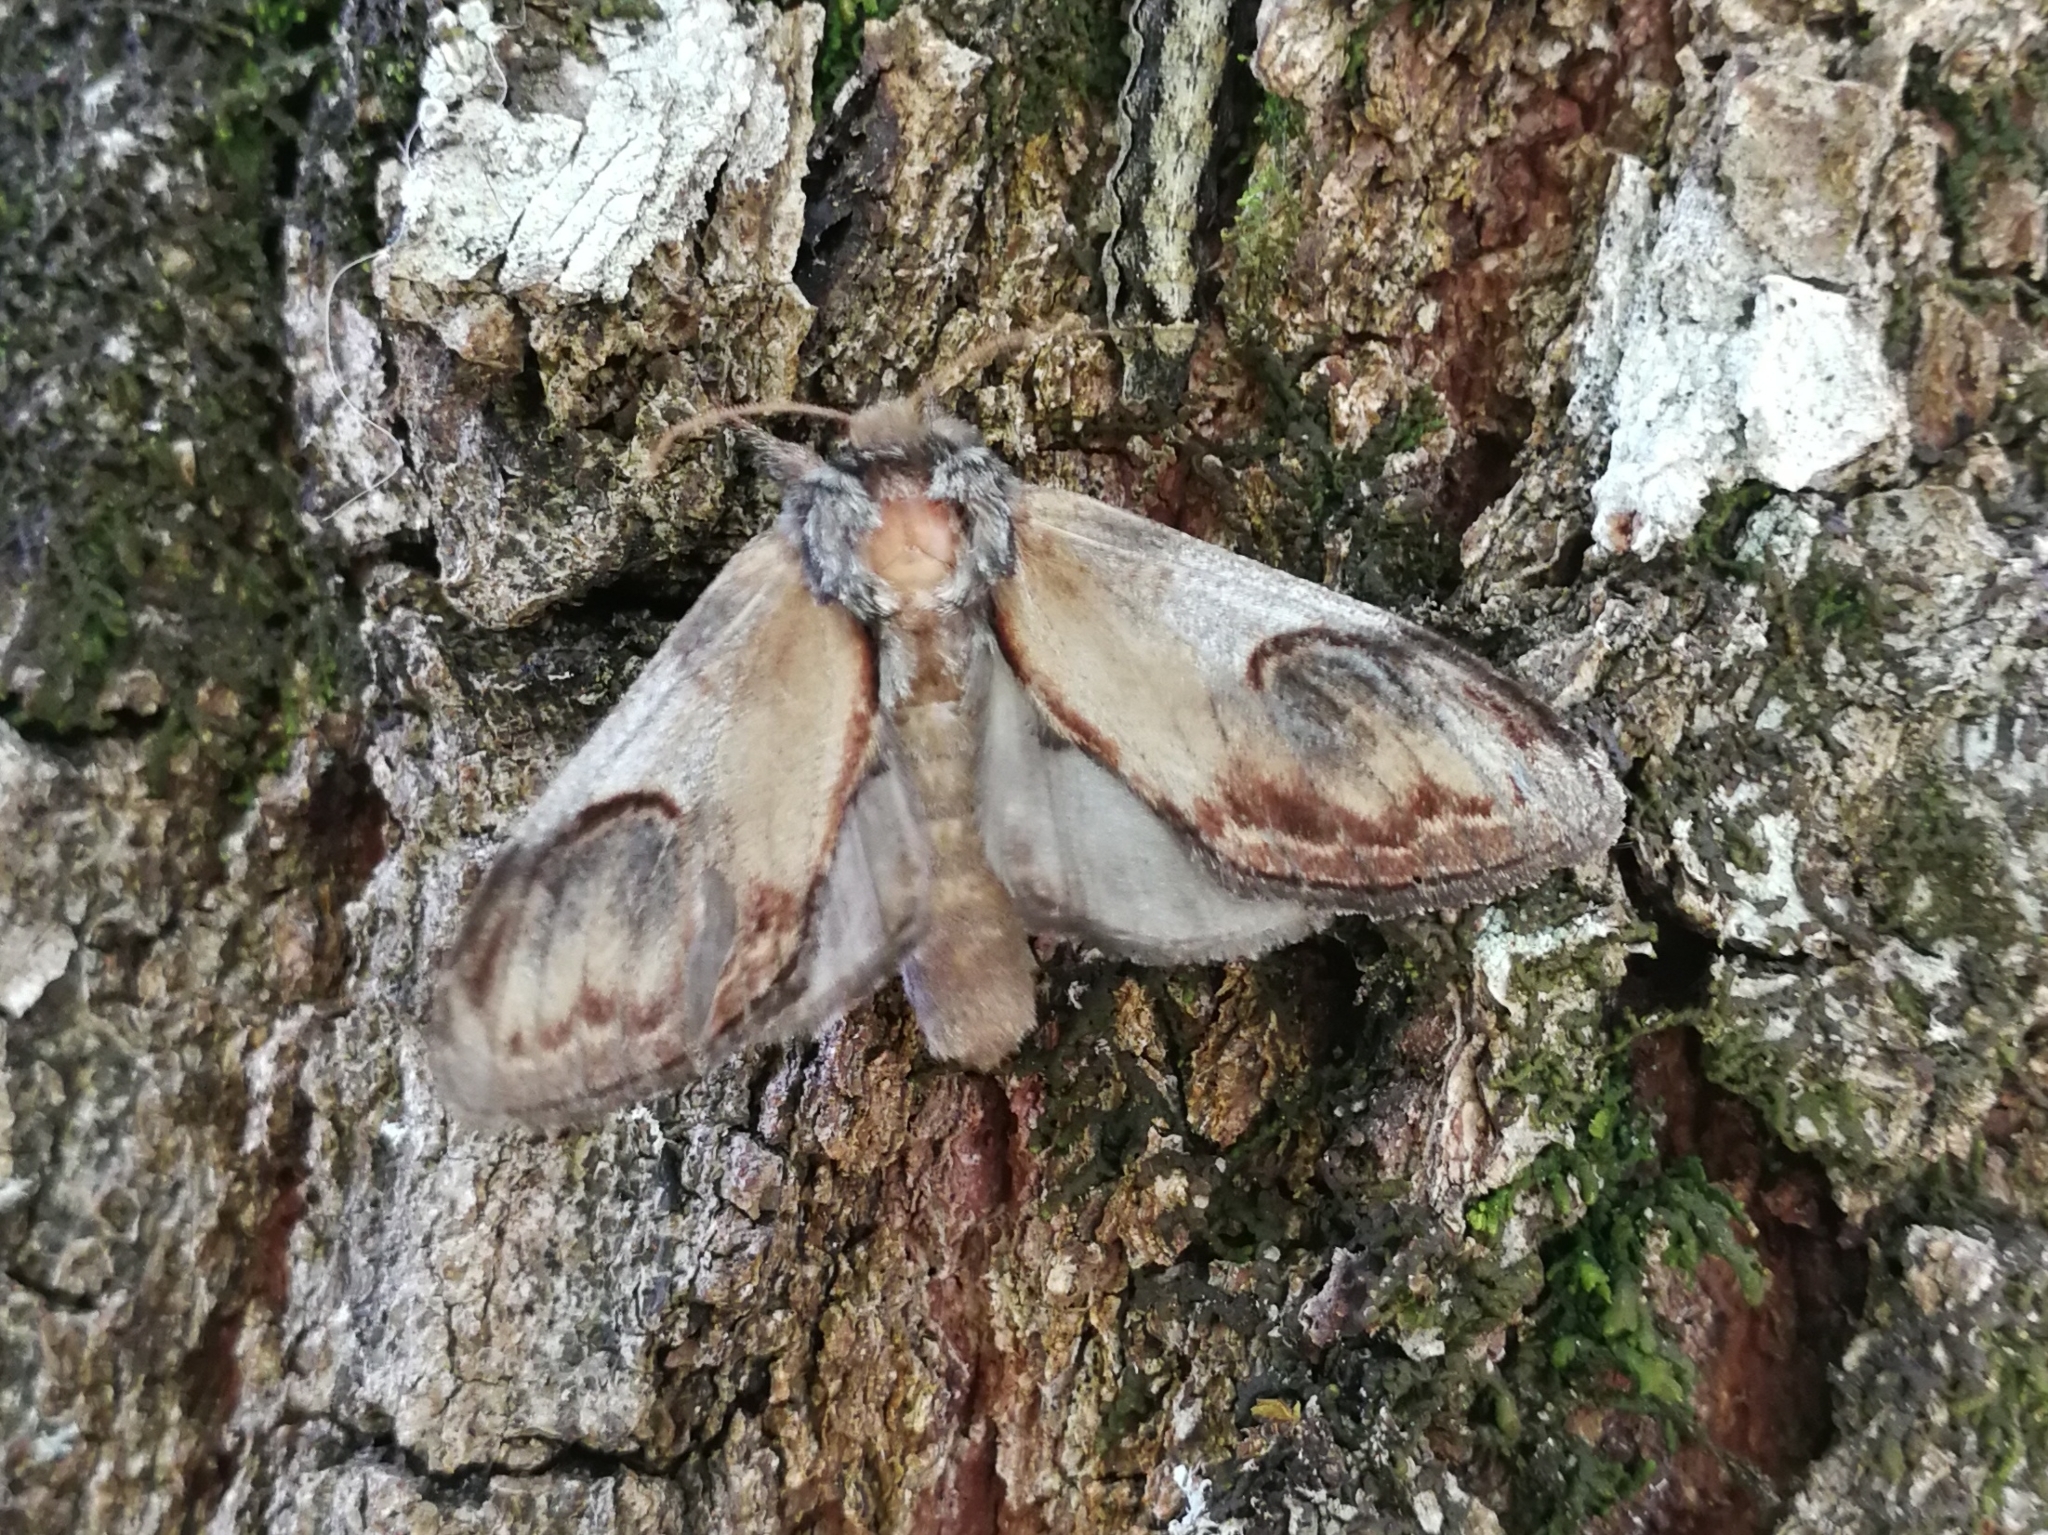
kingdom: Animalia
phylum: Arthropoda
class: Insecta
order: Lepidoptera
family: Notodontidae
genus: Notodonta
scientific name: Notodonta ziczac
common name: Pebble prominent
